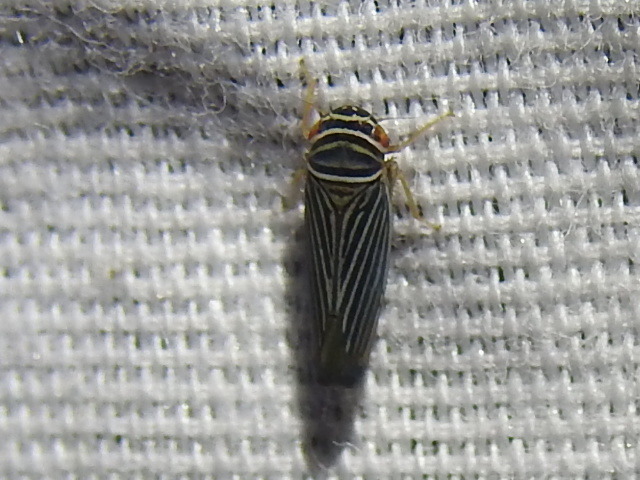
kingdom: Animalia
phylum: Arthropoda
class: Insecta
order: Hemiptera
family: Cicadellidae
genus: Tylozygus
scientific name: Tylozygus bifidus
